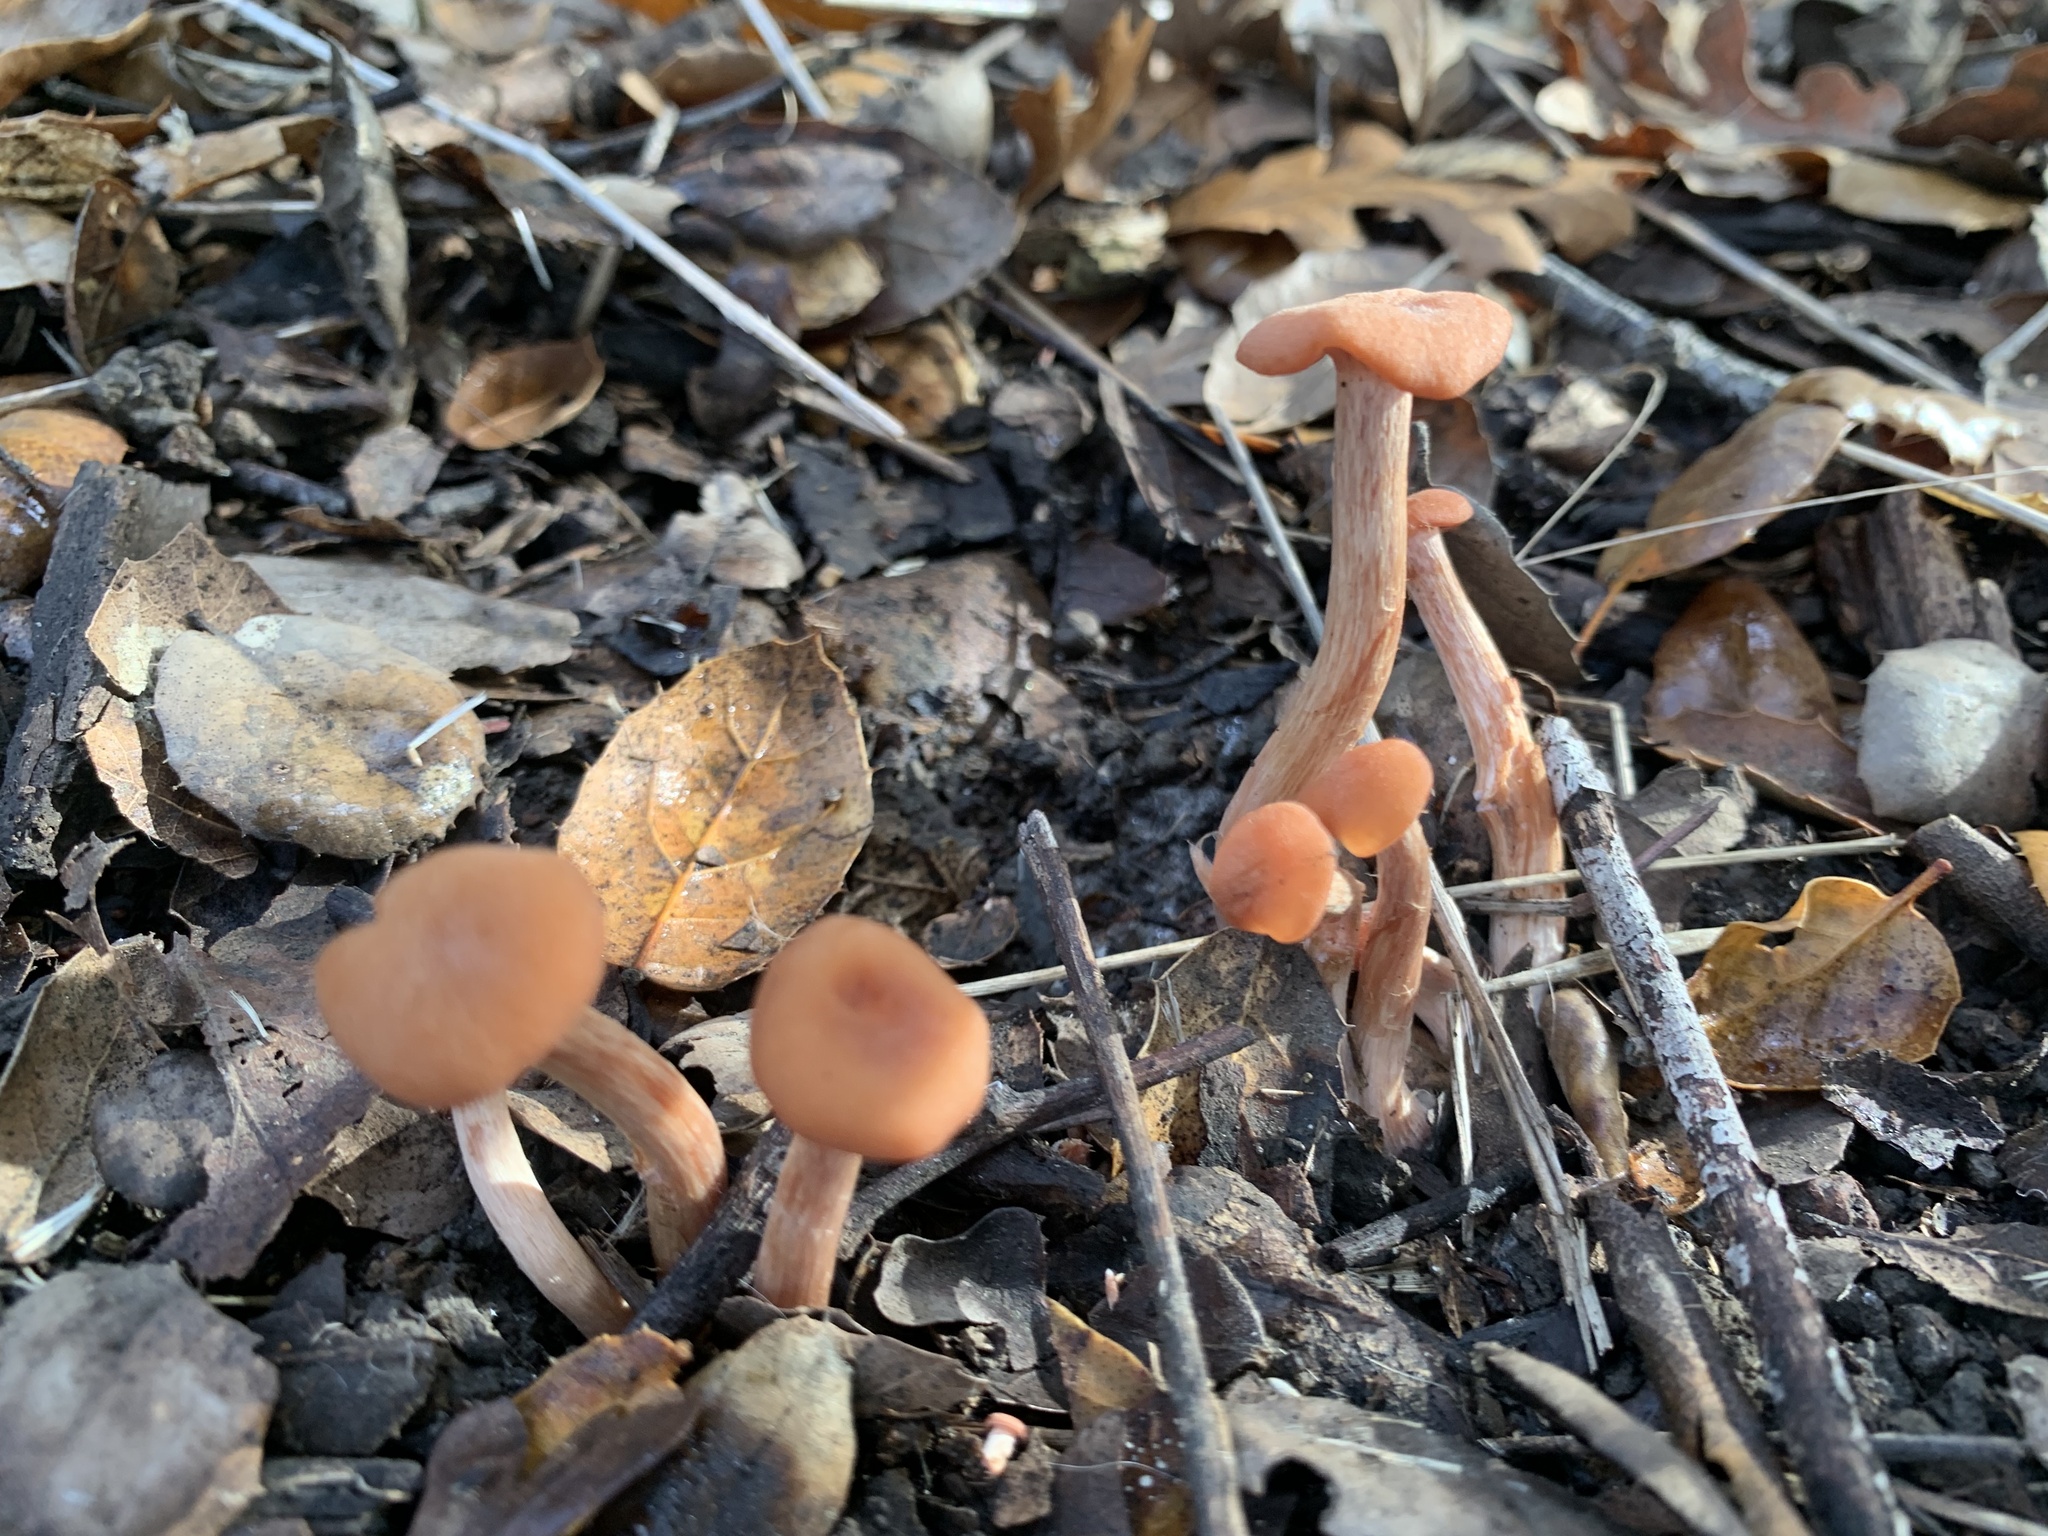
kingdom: Fungi
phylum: Basidiomycota
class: Agaricomycetes
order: Agaricales
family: Hydnangiaceae
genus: Laccaria
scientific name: Laccaria laccata
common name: Deceiver
